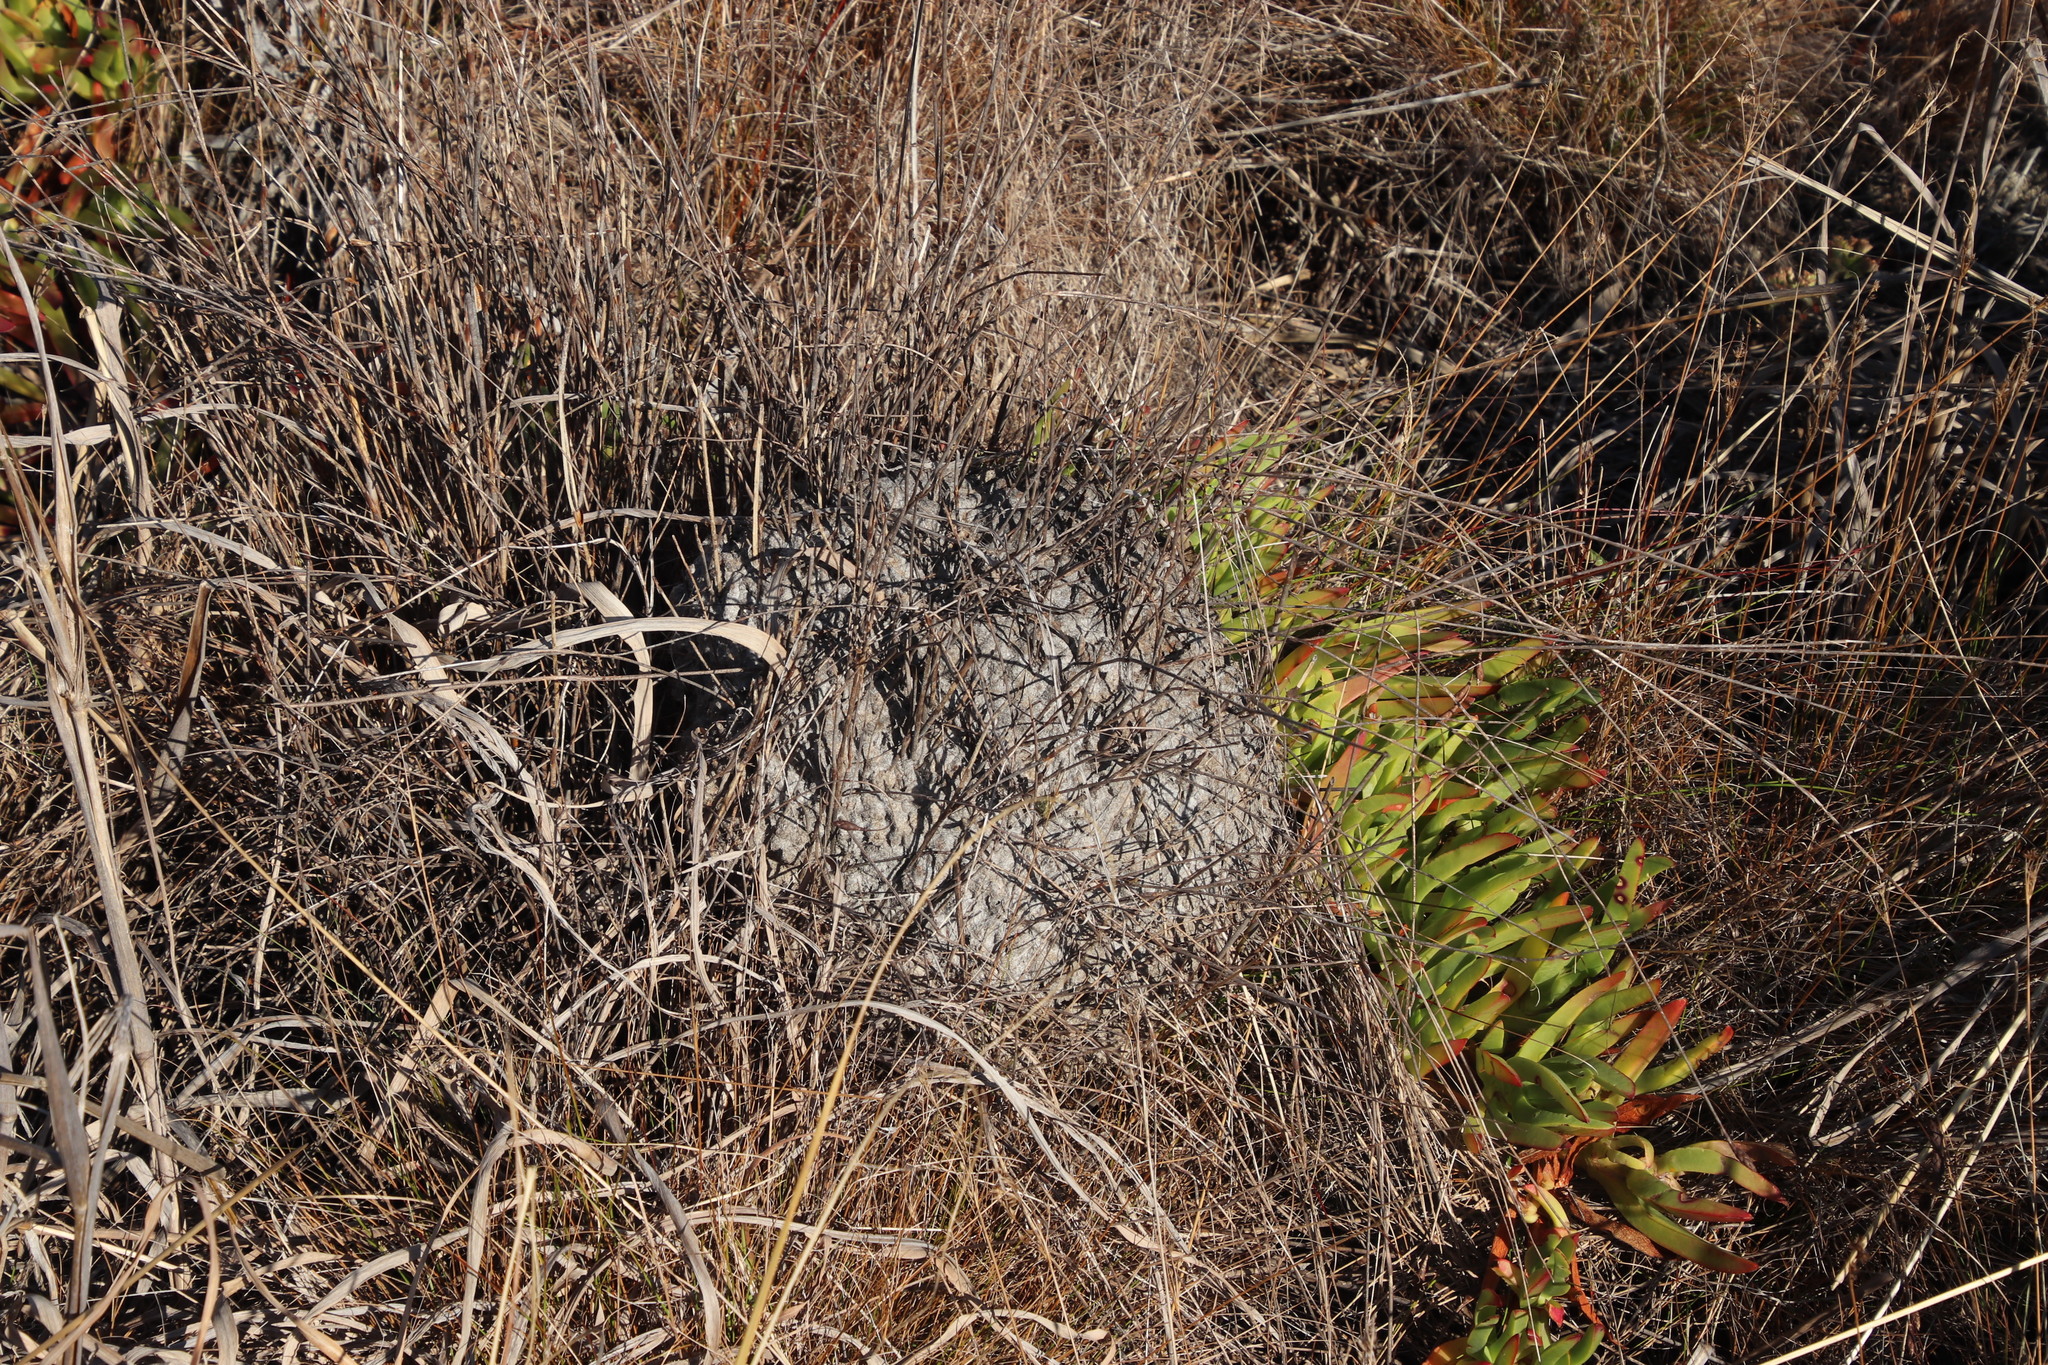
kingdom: Animalia
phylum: Arthropoda
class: Insecta
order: Hymenoptera
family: Formicidae
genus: Crematogaster
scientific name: Crematogaster peringueyi
